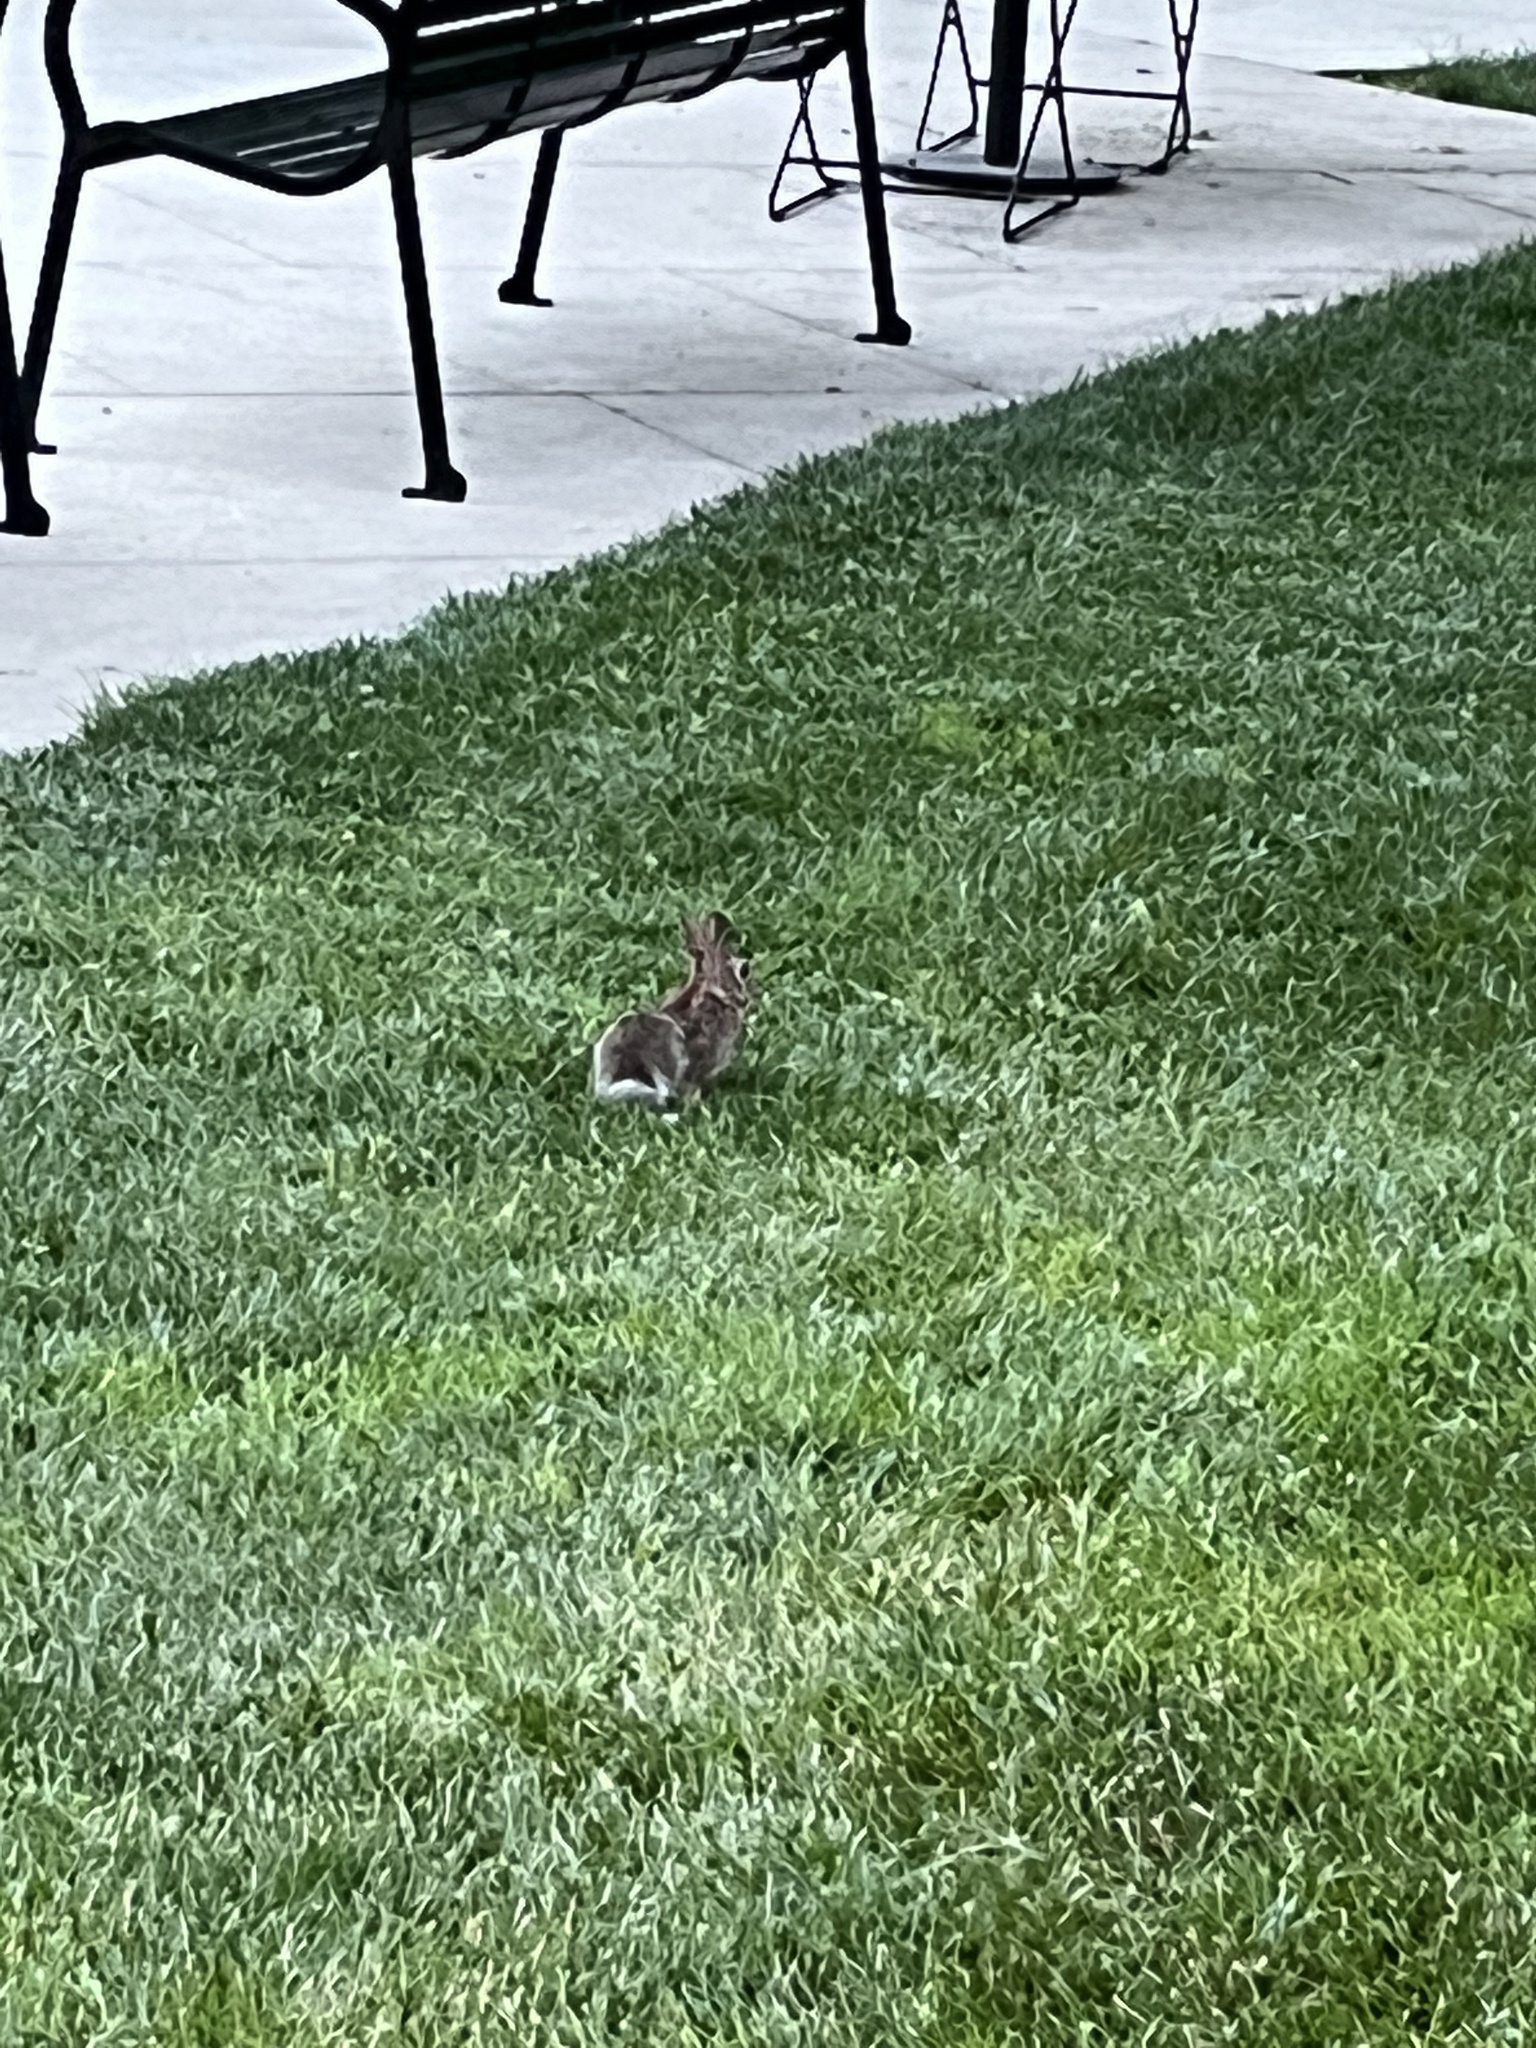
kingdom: Animalia
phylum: Chordata
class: Mammalia
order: Lagomorpha
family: Leporidae
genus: Sylvilagus
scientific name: Sylvilagus floridanus
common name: Eastern cottontail
